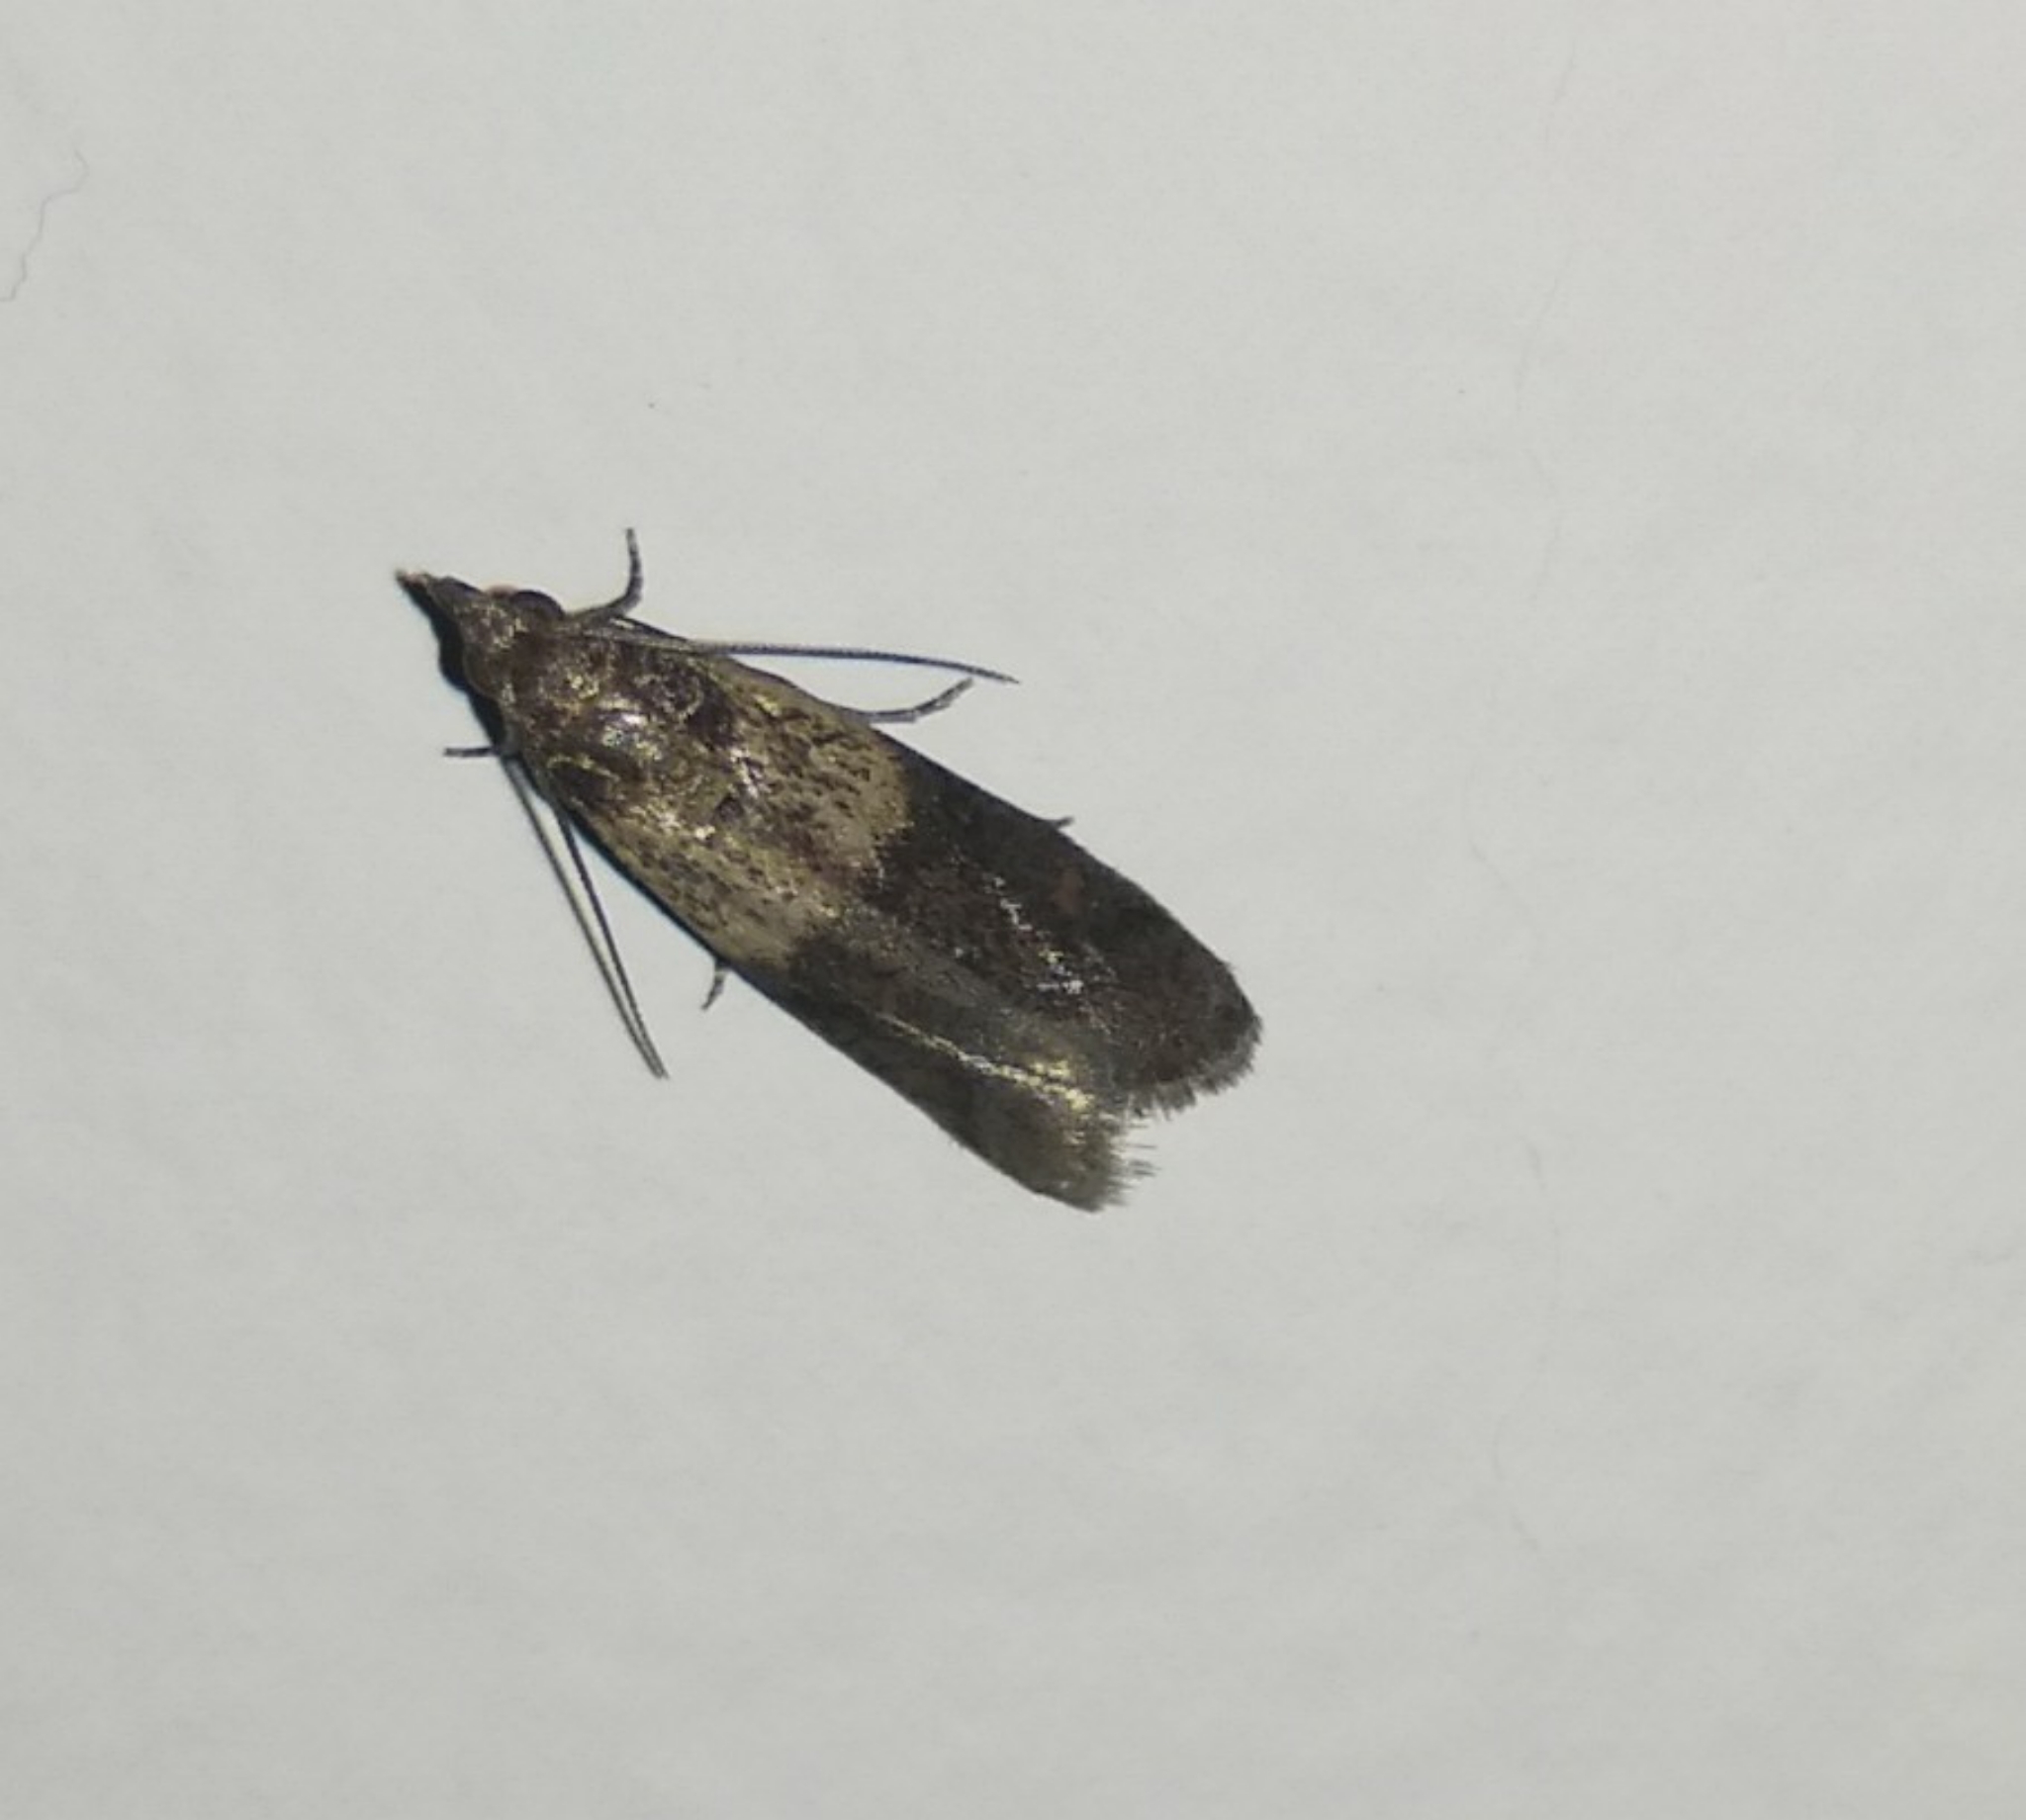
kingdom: Animalia
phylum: Arthropoda
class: Insecta
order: Lepidoptera
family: Pyralidae
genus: Plodia
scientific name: Plodia interpunctella
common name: Indian meal moth
